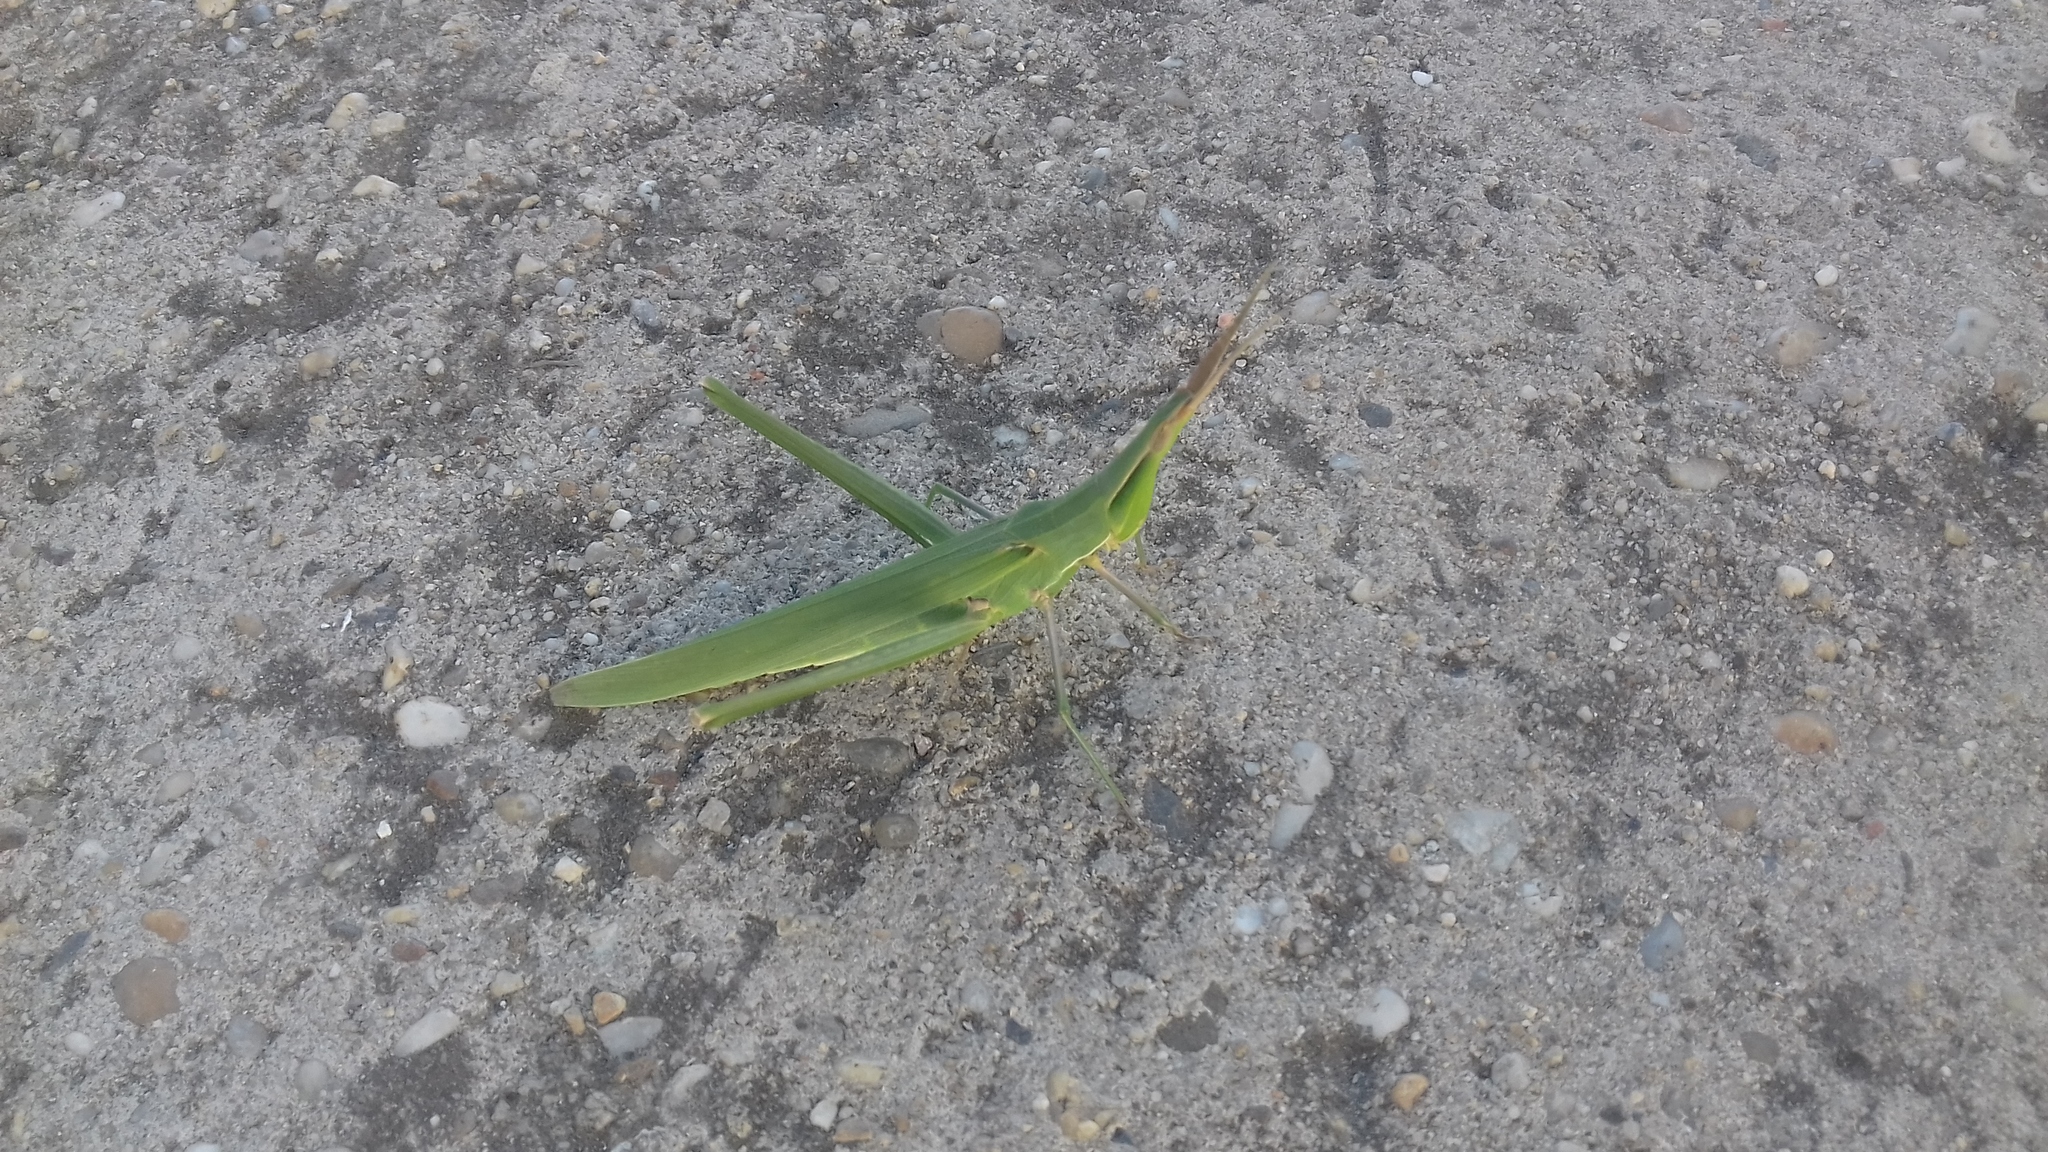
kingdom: Animalia
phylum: Arthropoda
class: Insecta
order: Orthoptera
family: Acrididae
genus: Acrida
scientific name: Acrida ungarica
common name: Common cone-headed grasshopper
